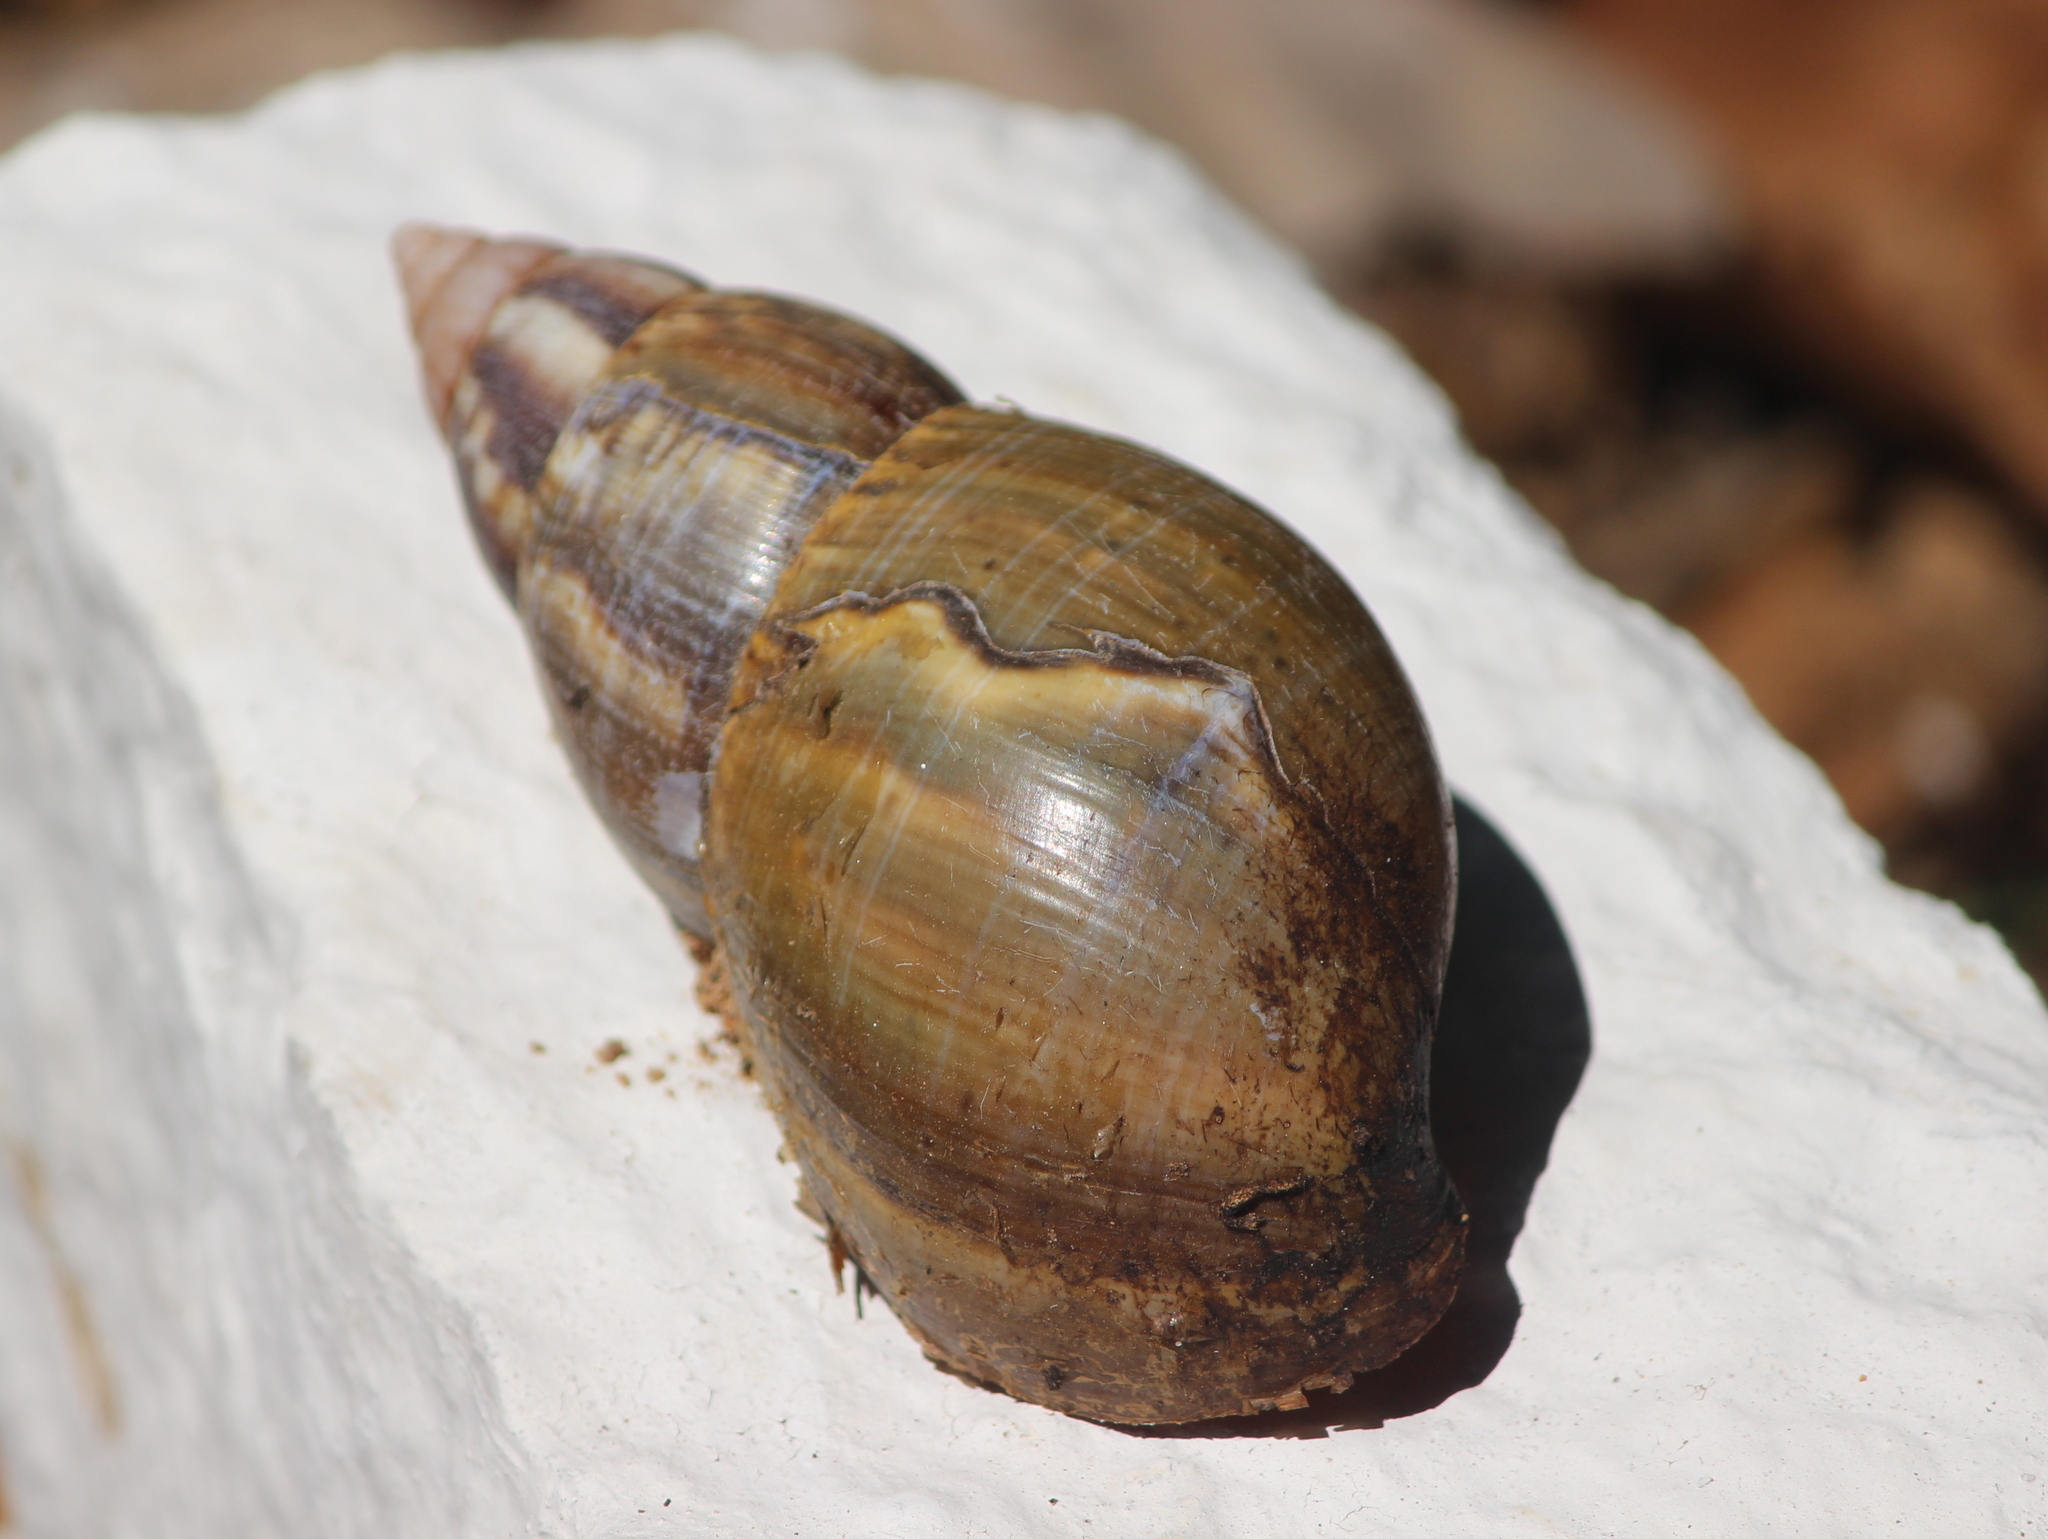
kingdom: Animalia
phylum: Mollusca
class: Gastropoda
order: Stylommatophora
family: Achatinidae
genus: Lissachatina
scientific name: Lissachatina fulica
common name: Giant african snail
